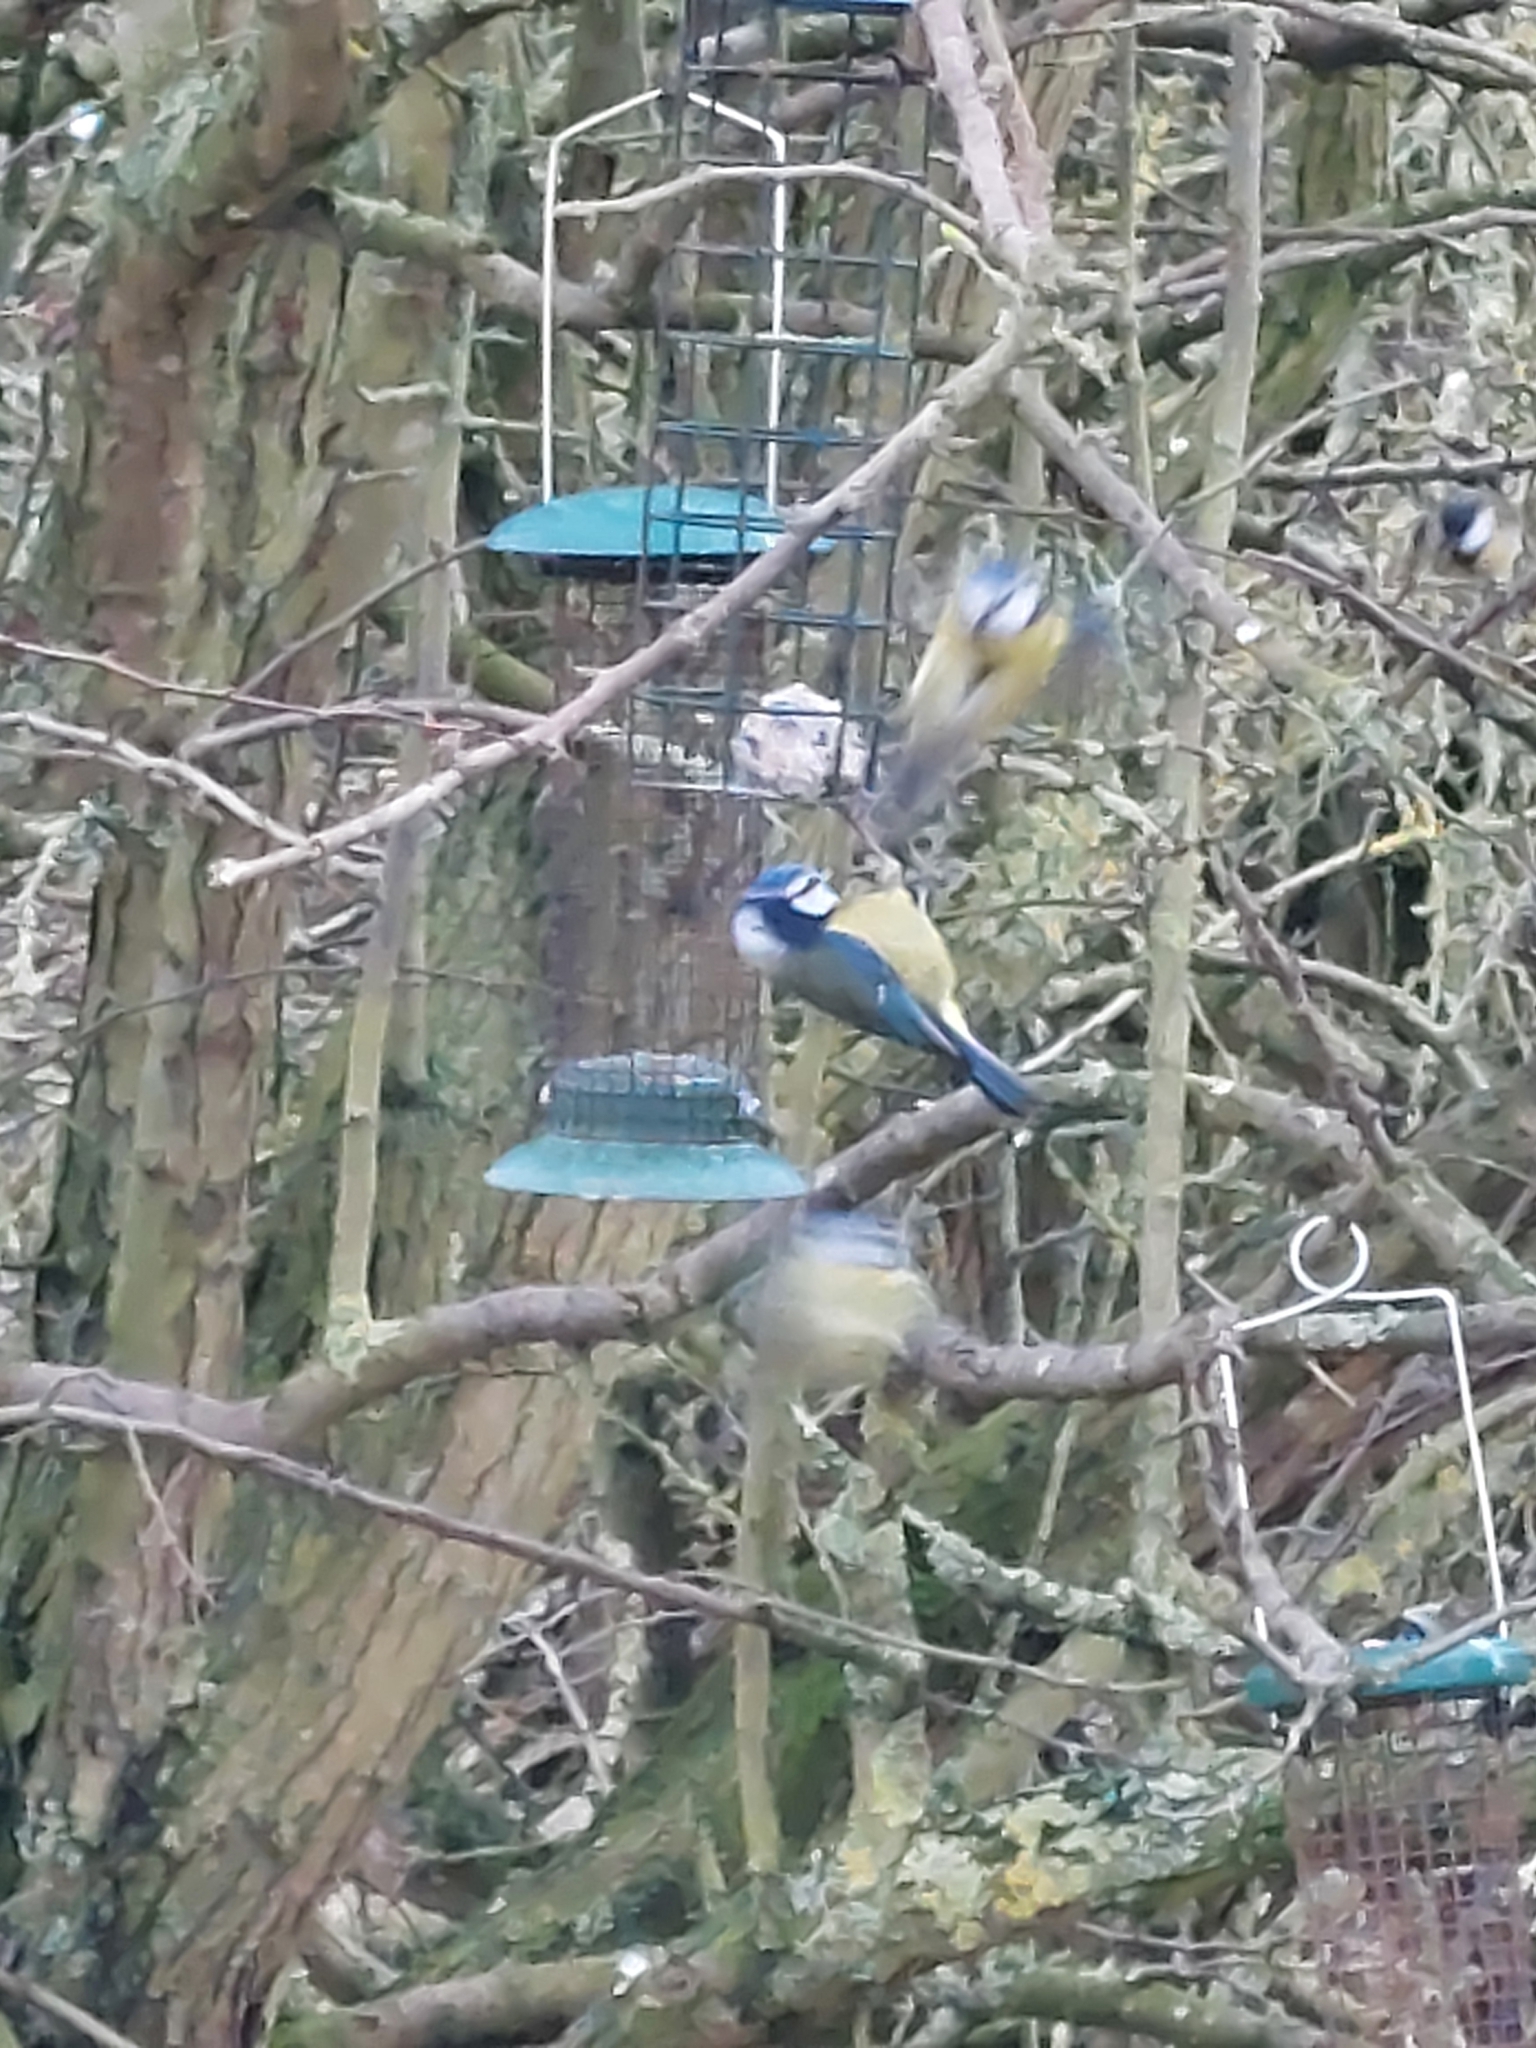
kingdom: Animalia
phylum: Chordata
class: Aves
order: Passeriformes
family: Paridae
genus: Cyanistes
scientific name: Cyanistes caeruleus
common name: Eurasian blue tit
